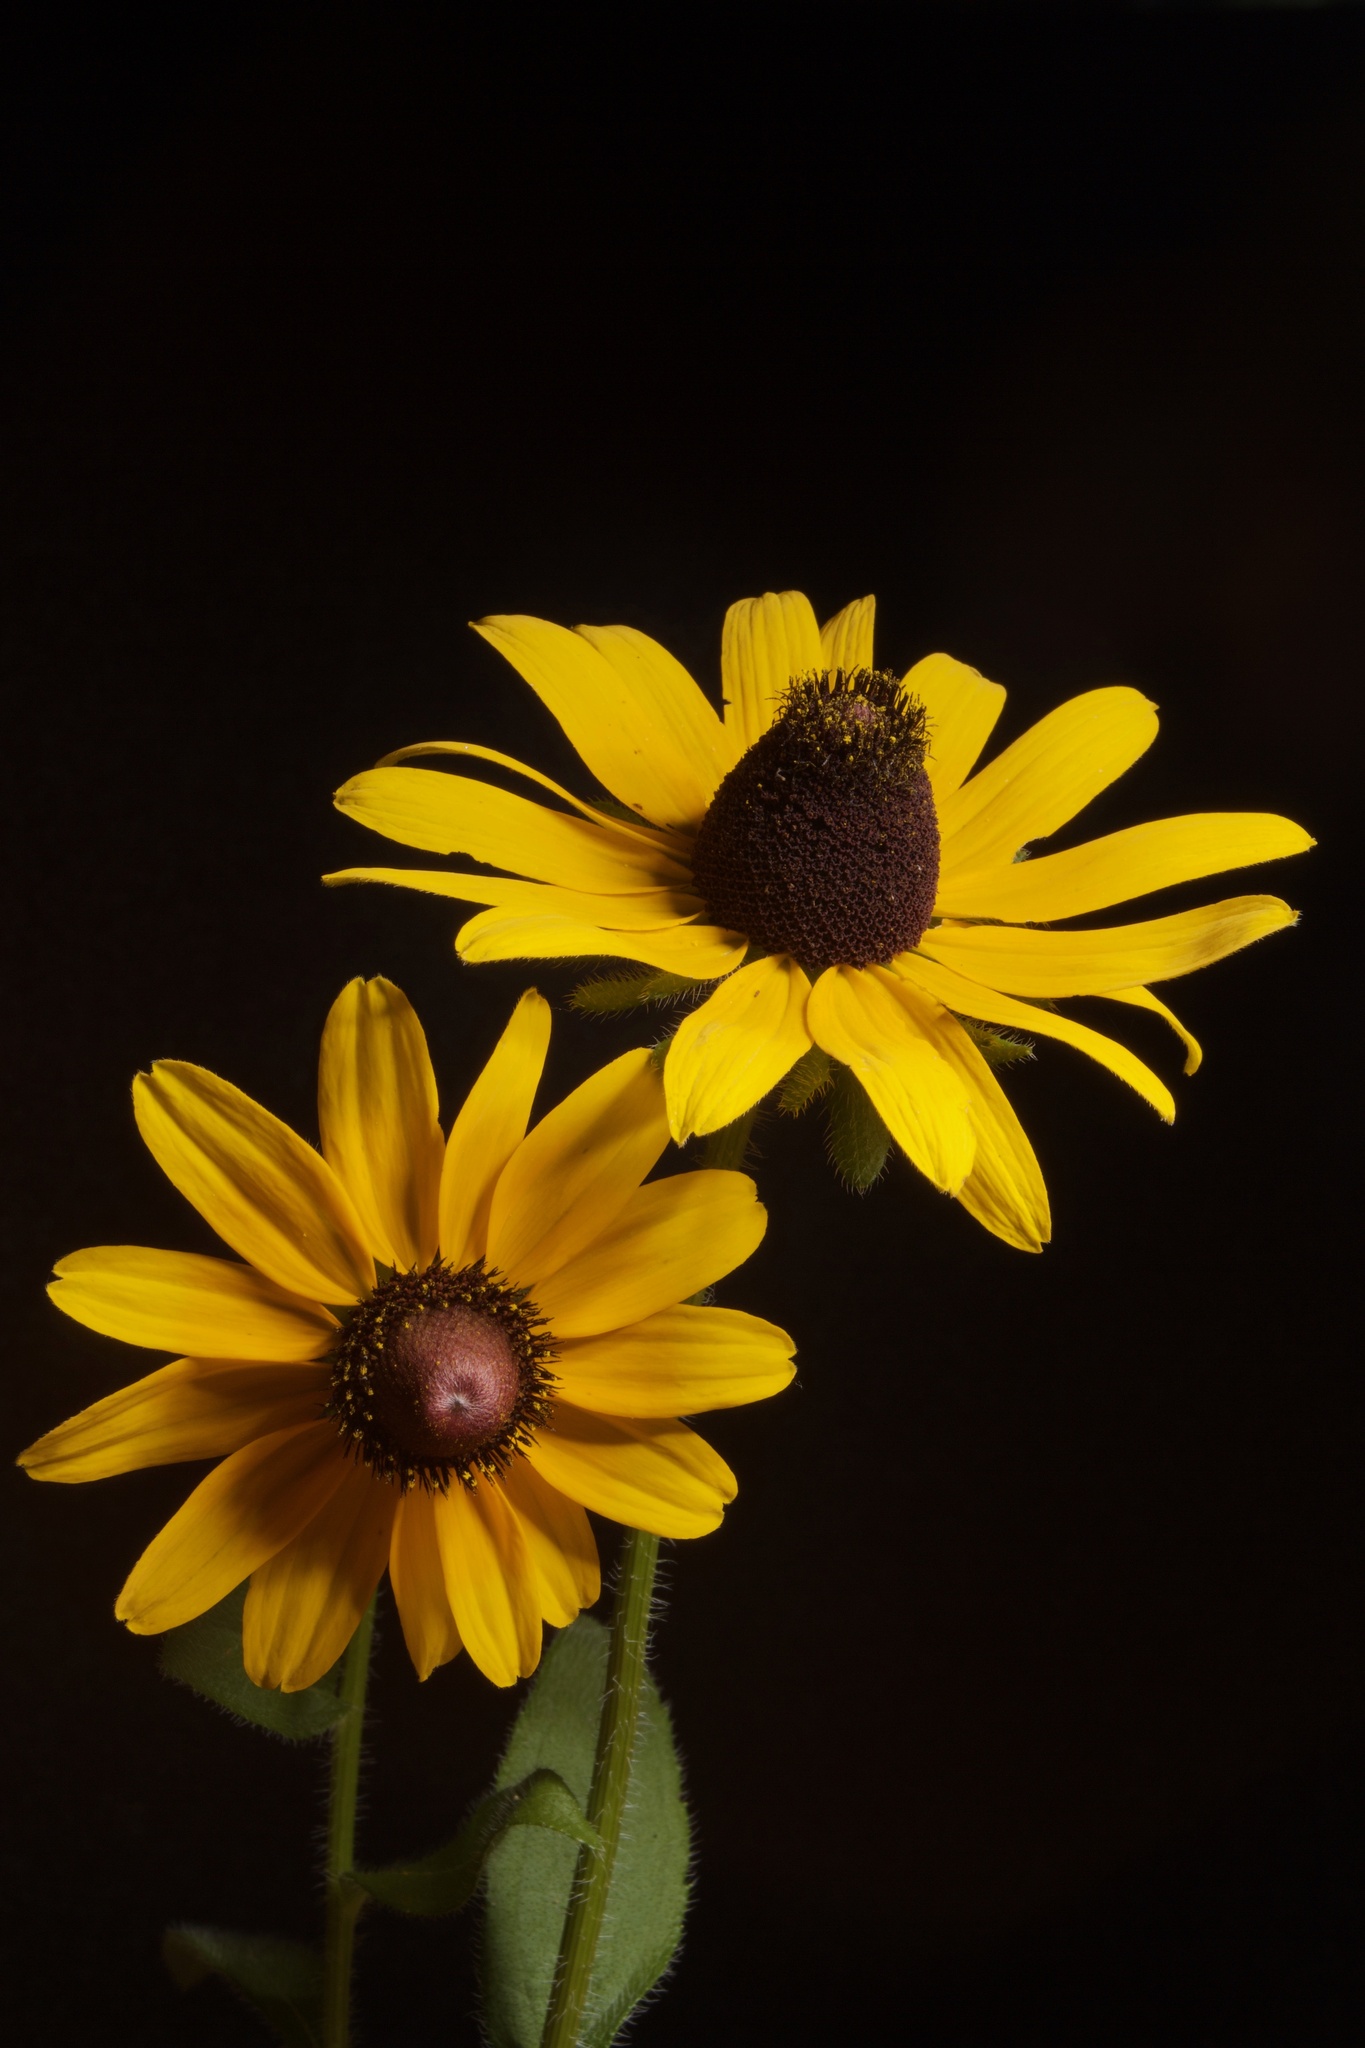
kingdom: Plantae
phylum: Tracheophyta
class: Magnoliopsida
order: Asterales
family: Asteraceae
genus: Rudbeckia
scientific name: Rudbeckia hirta
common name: Black-eyed-susan
